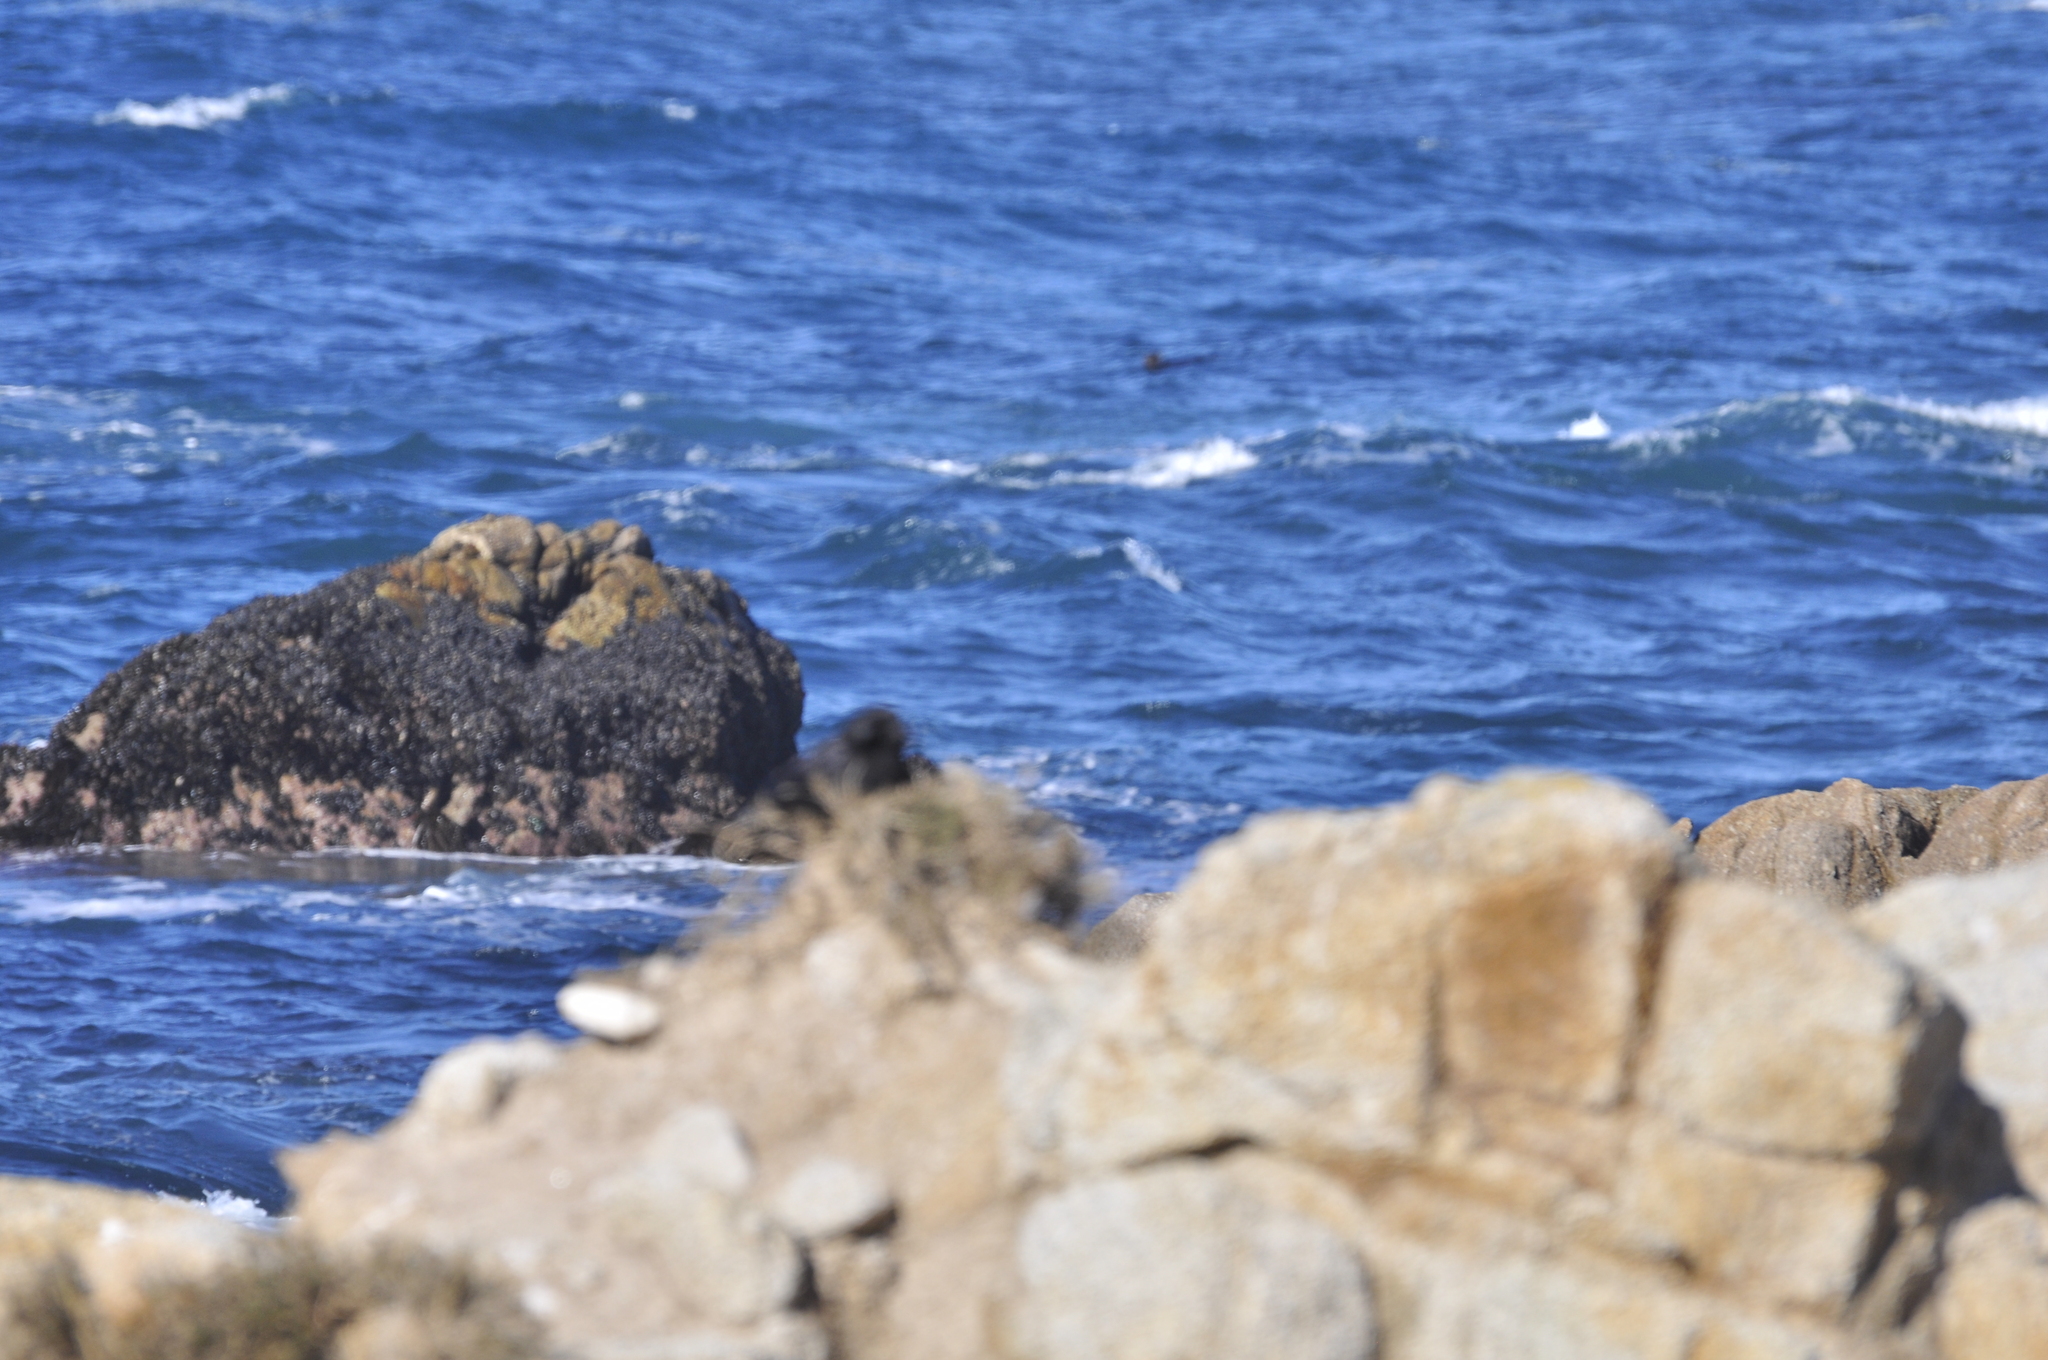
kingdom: Animalia
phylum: Chordata
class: Aves
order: Passeriformes
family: Corvidae
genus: Corvus
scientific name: Corvus brachyrhynchos
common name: American crow
